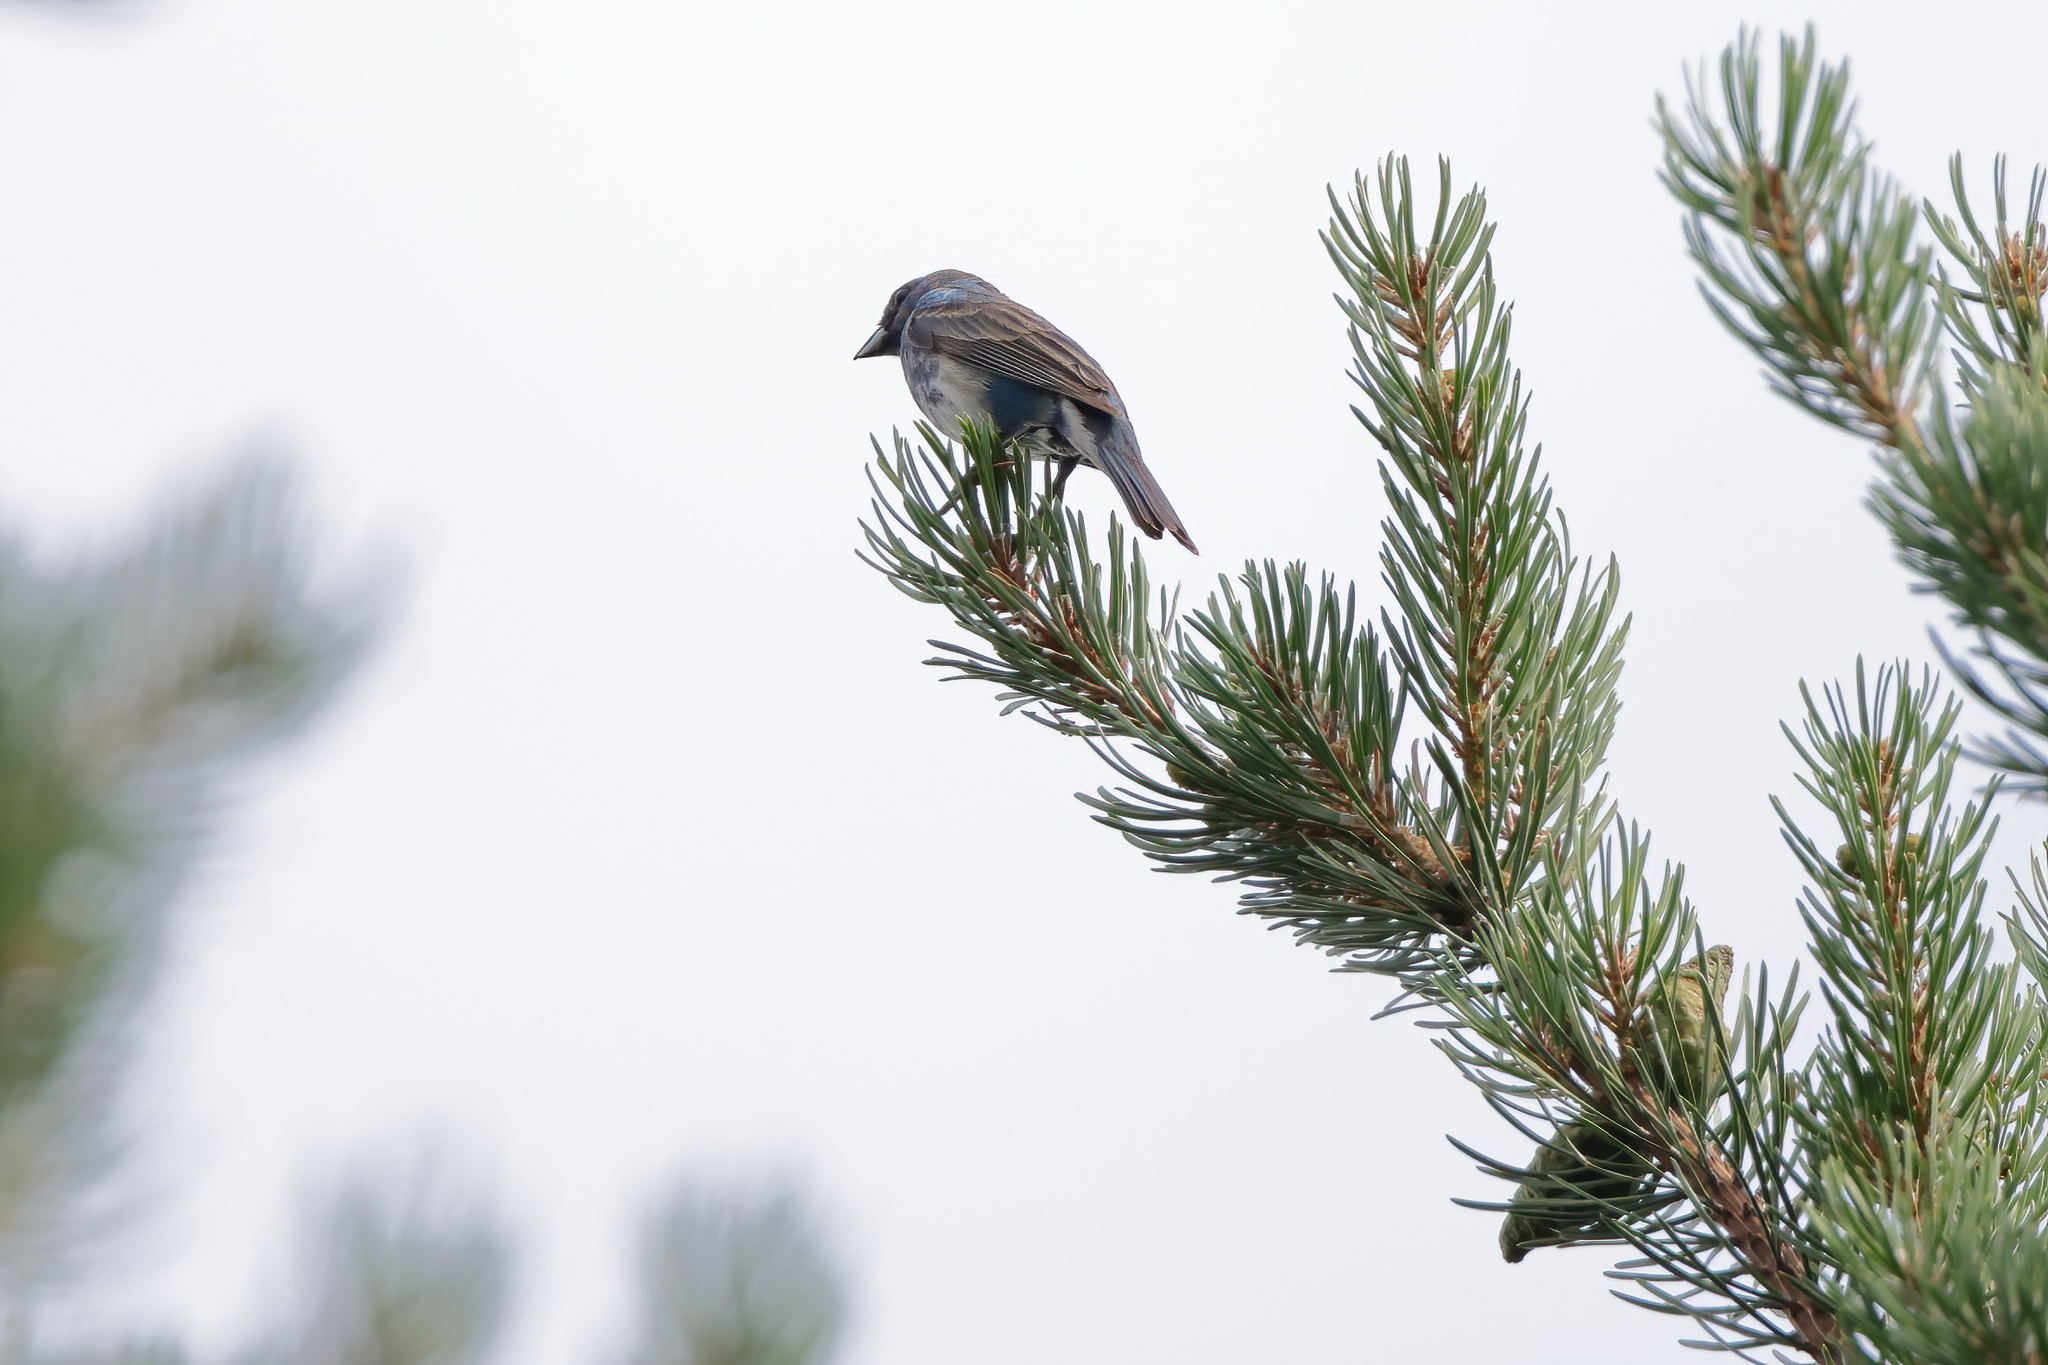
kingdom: Animalia
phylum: Chordata
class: Aves
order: Passeriformes
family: Cardinalidae
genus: Passerina
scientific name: Passerina cyanea
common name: Indigo bunting
